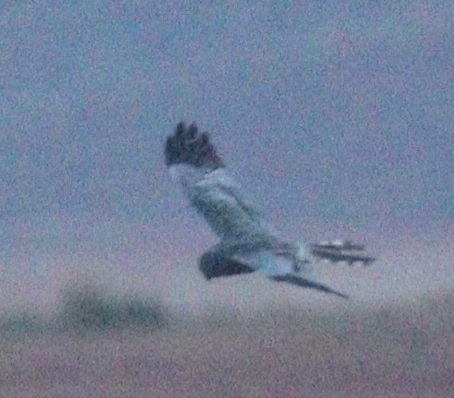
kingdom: Animalia
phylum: Chordata
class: Aves
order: Accipitriformes
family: Accipitridae
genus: Circus
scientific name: Circus pygargus
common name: Montagu's harrier
